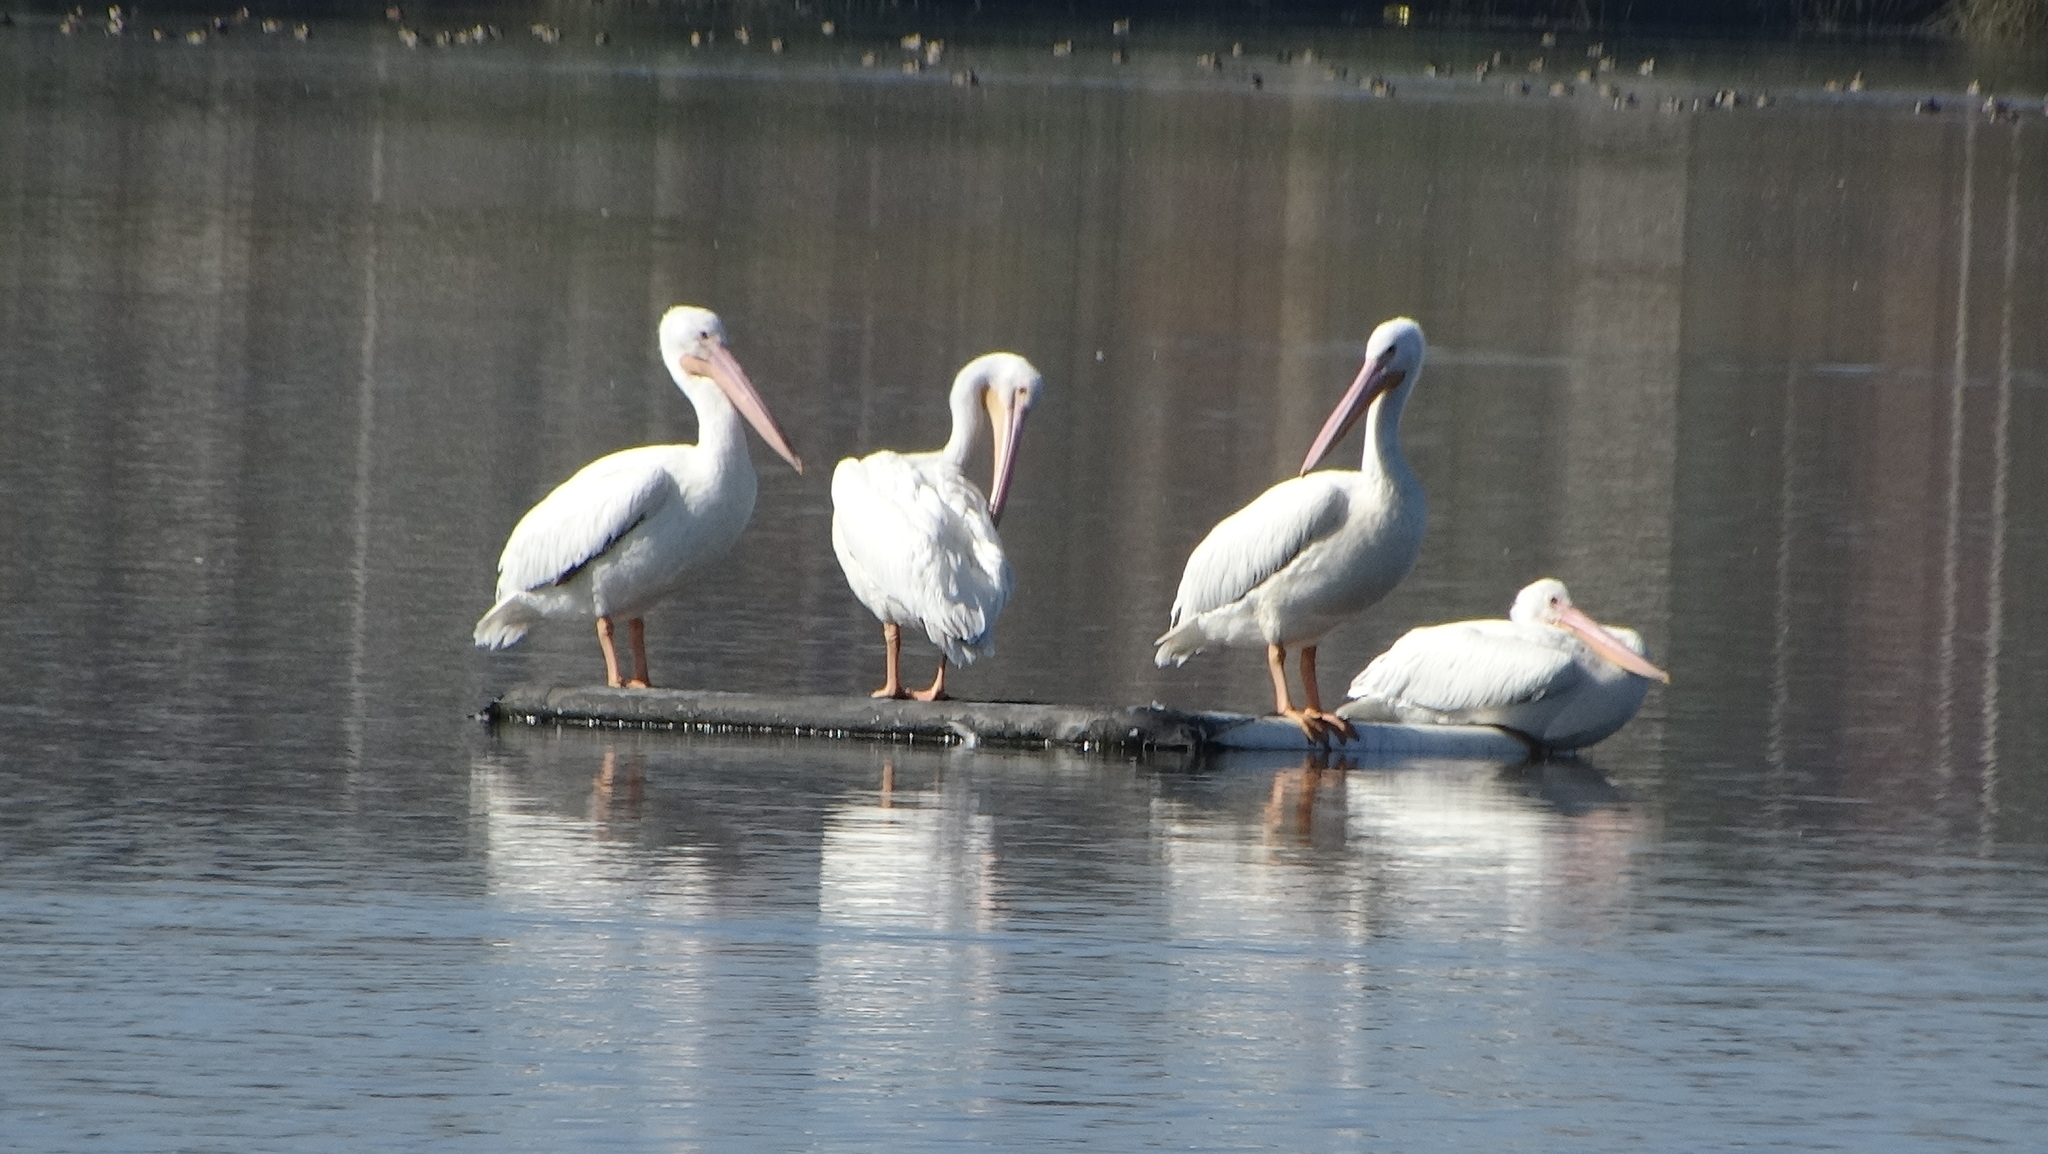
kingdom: Animalia
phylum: Chordata
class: Aves
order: Pelecaniformes
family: Pelecanidae
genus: Pelecanus
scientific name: Pelecanus erythrorhynchos
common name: American white pelican
